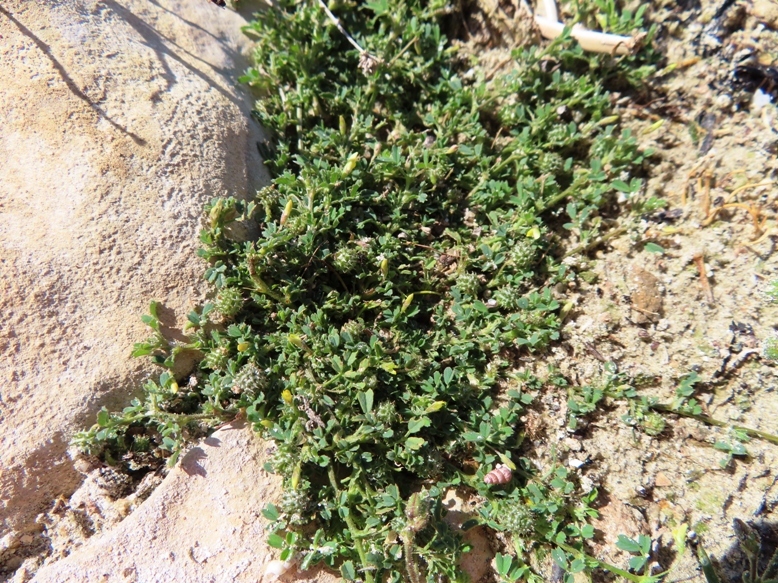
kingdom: Plantae
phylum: Tracheophyta
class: Magnoliopsida
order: Fabales
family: Fabaceae
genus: Medicago
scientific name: Medicago polymorpha
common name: Burclover
